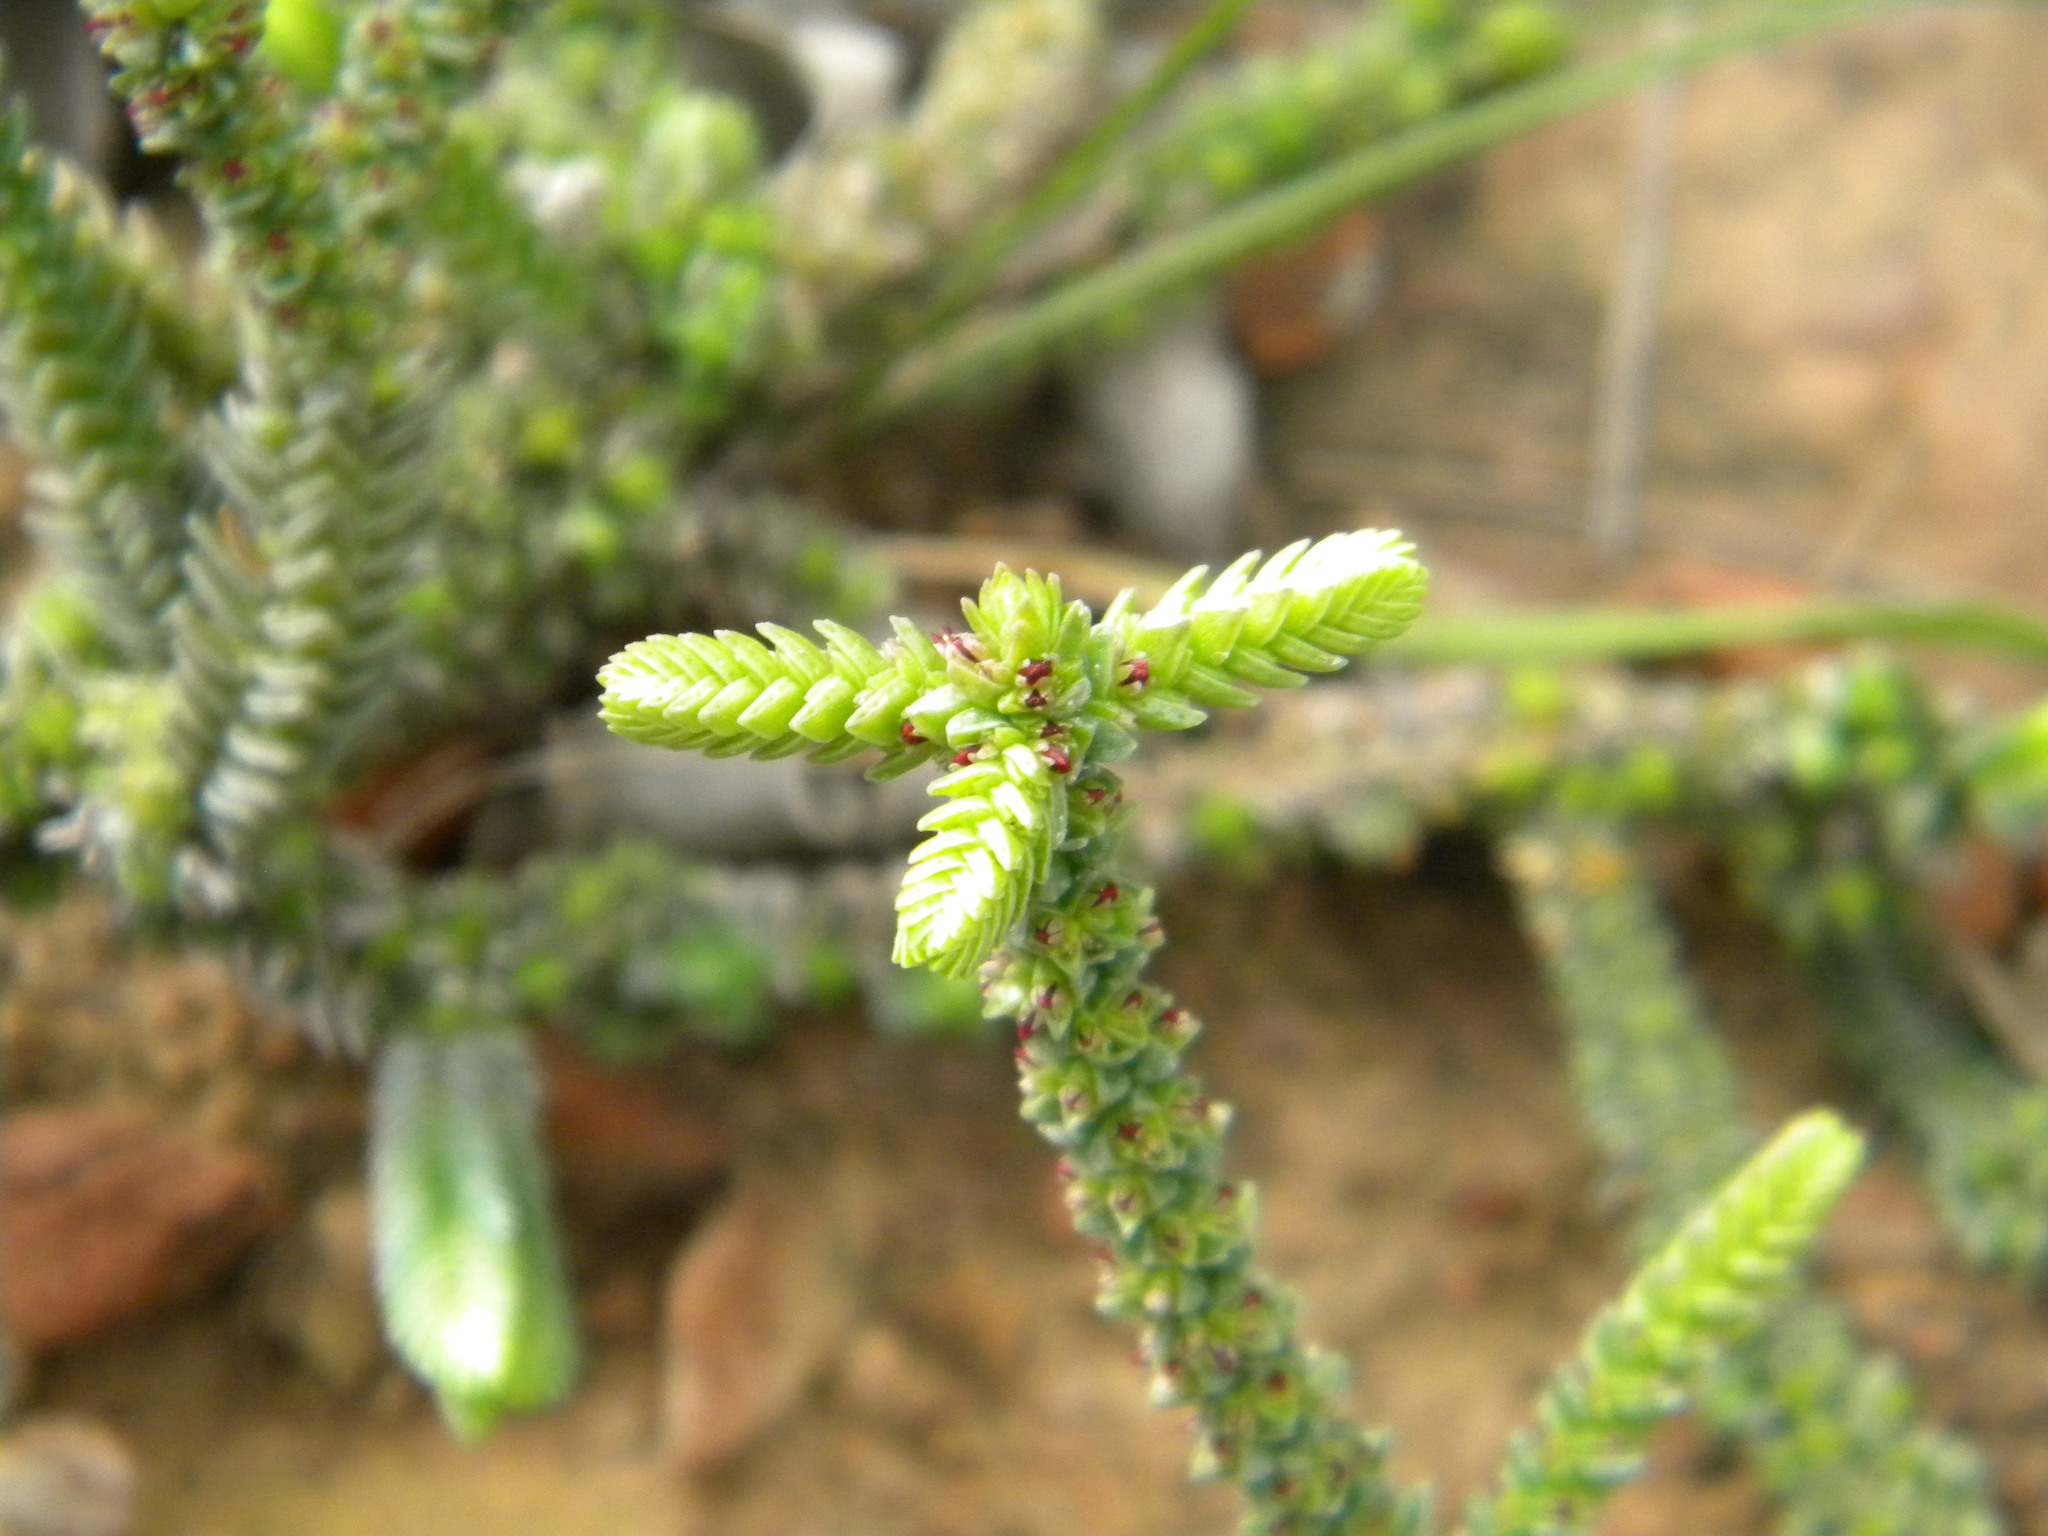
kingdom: Plantae
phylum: Tracheophyta
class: Magnoliopsida
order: Saxifragales
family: Crassulaceae
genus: Crassula
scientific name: Crassula muscosa
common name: Toy-cypress
